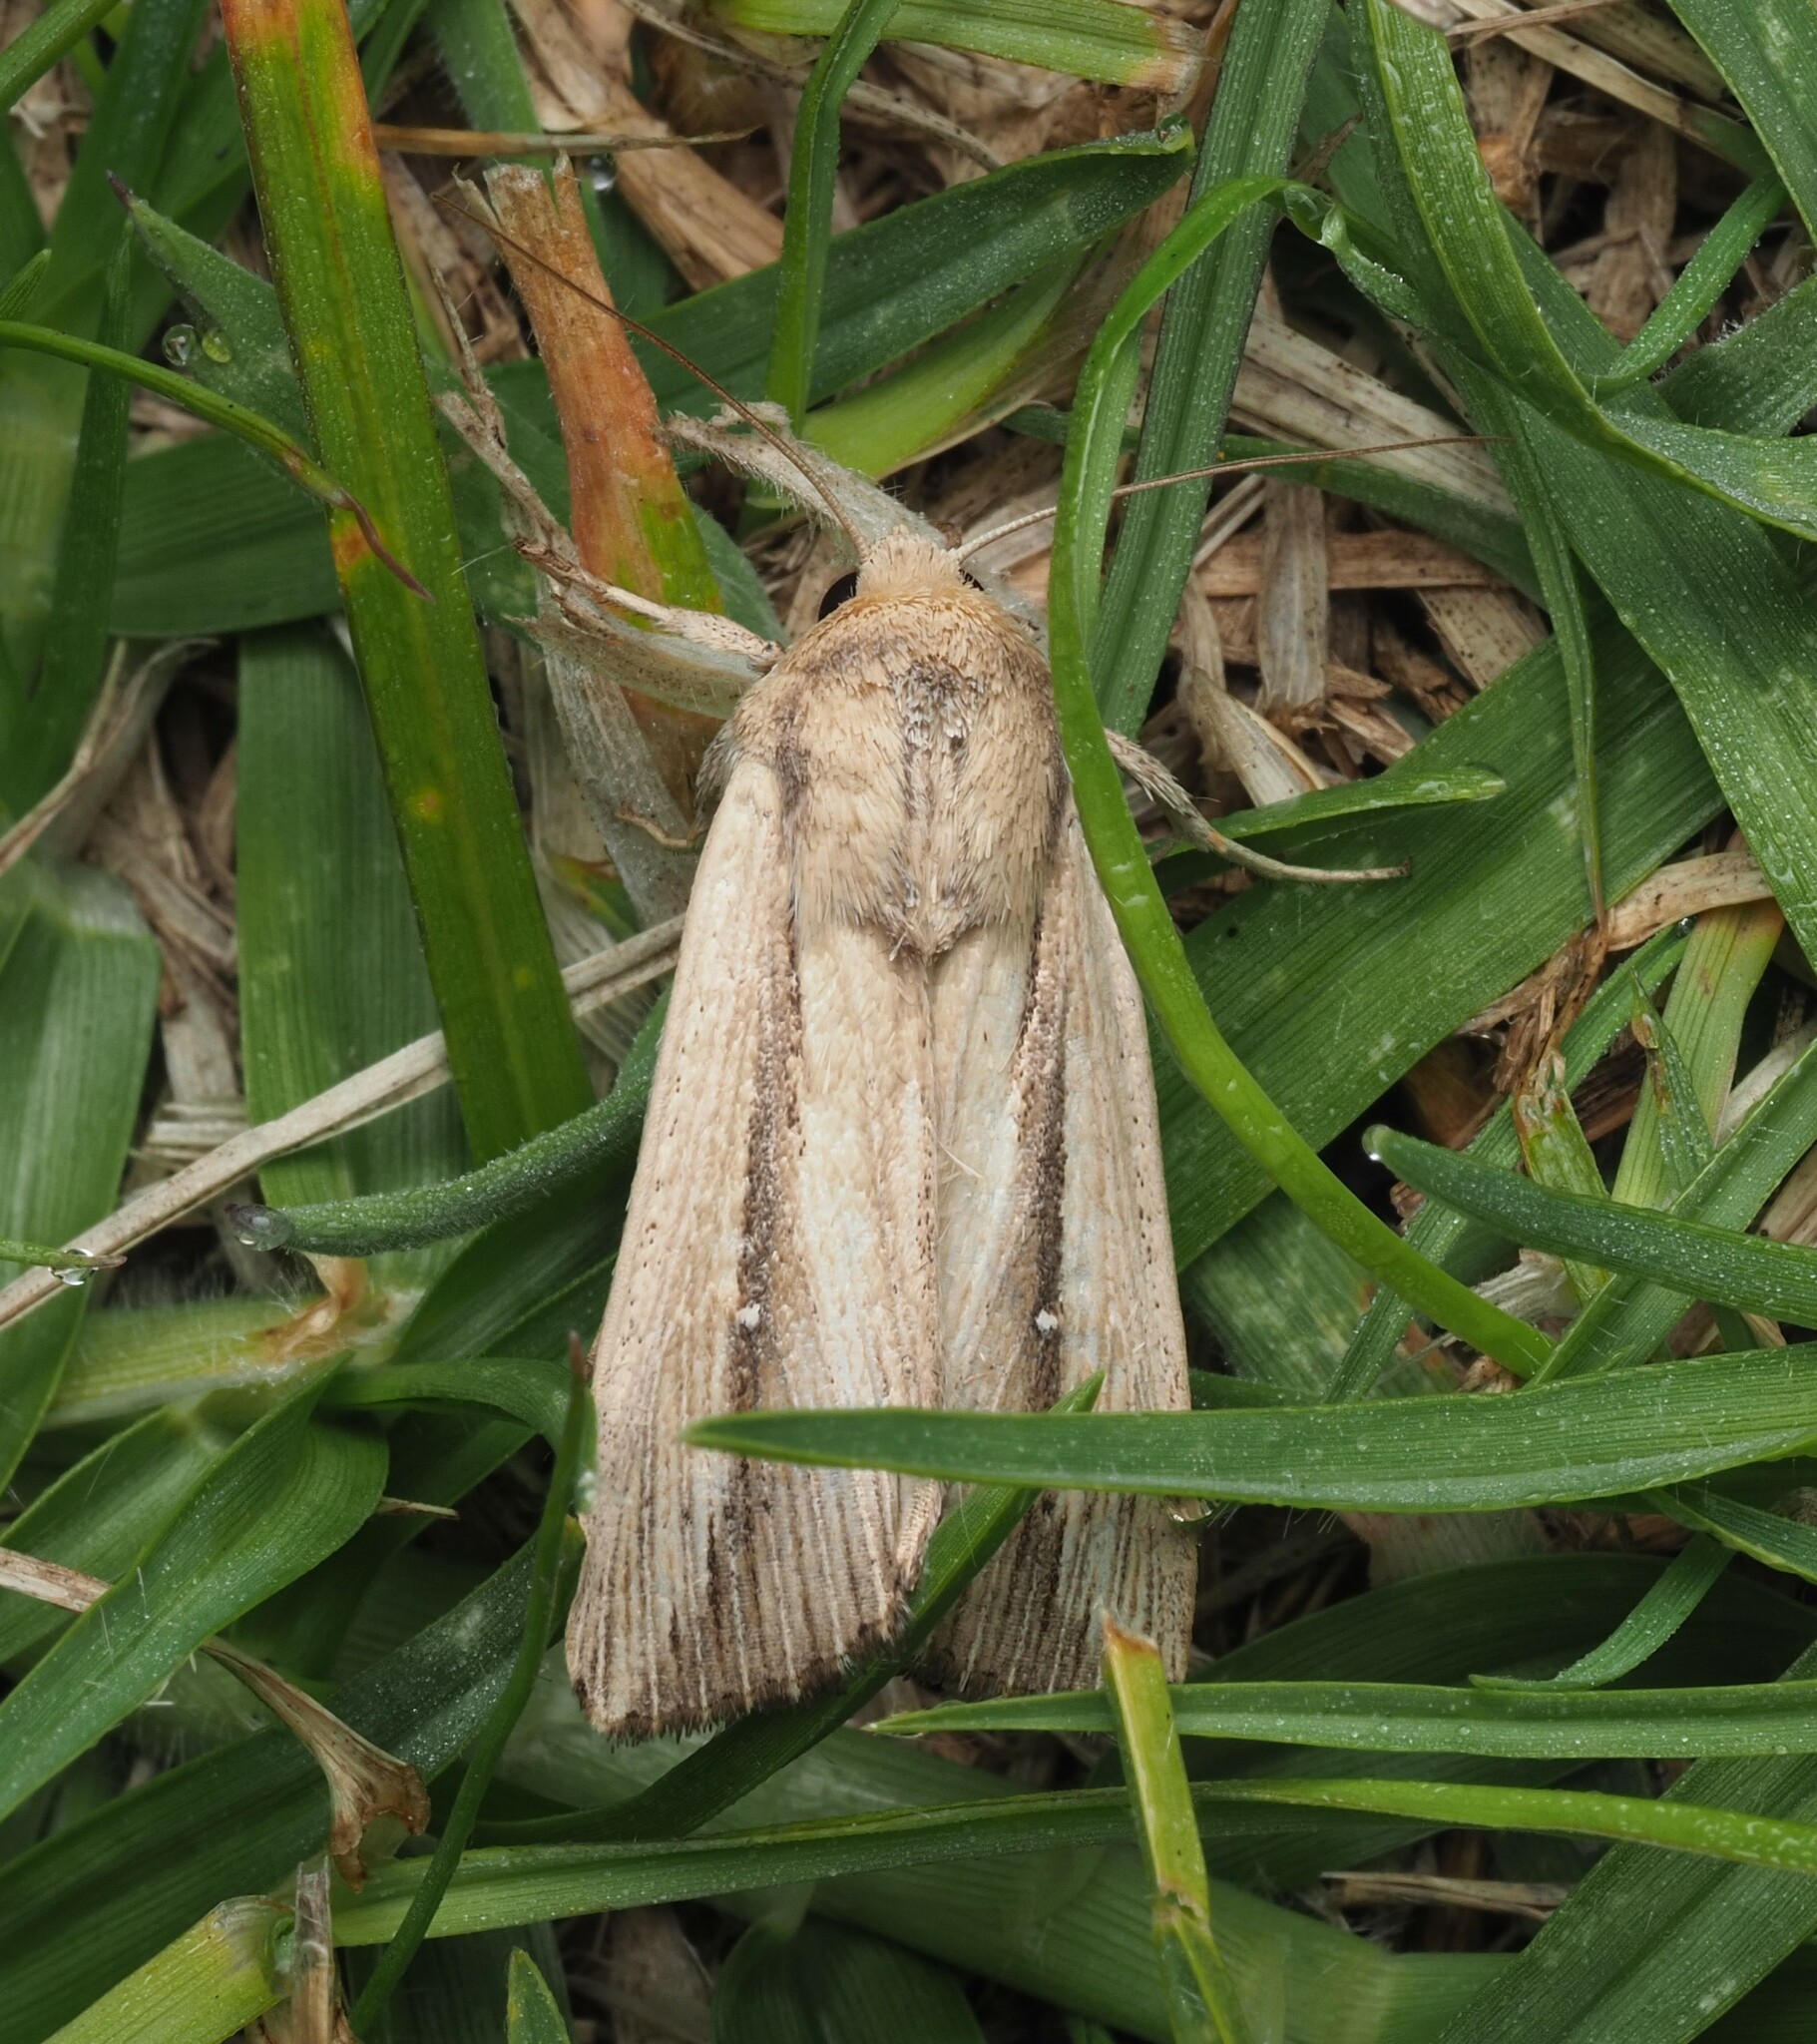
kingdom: Animalia
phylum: Arthropoda
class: Insecta
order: Lepidoptera
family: Noctuidae
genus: Leucania
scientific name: Leucania stenographa
